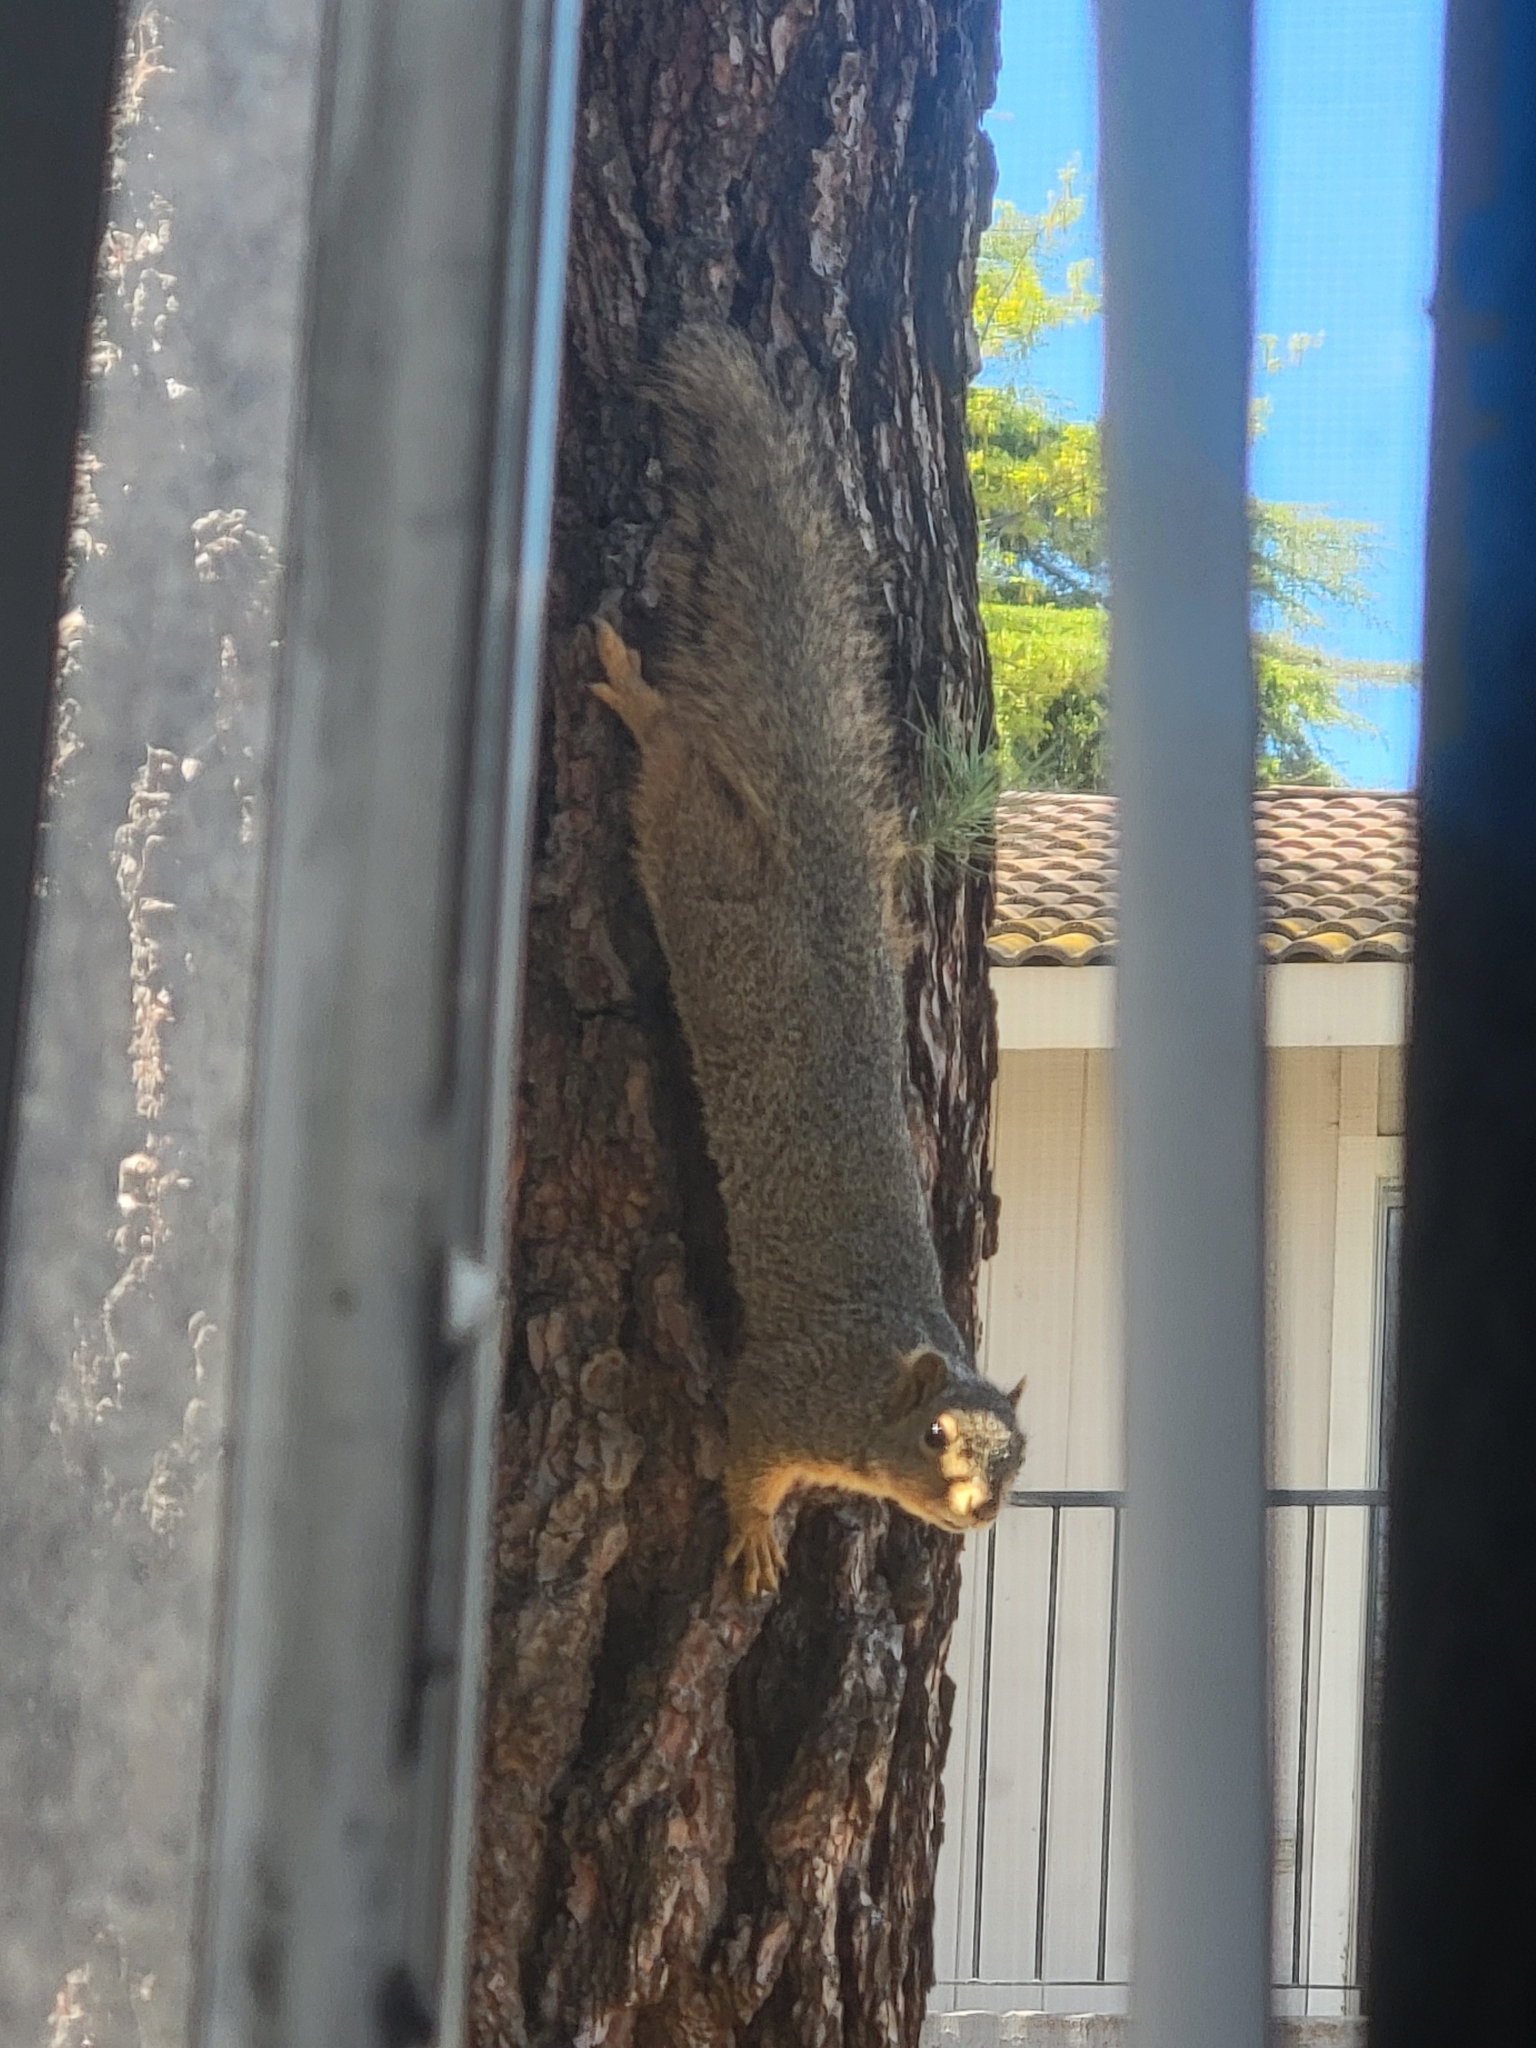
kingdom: Animalia
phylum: Chordata
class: Mammalia
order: Rodentia
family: Sciuridae
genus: Sciurus
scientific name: Sciurus niger
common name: Fox squirrel
